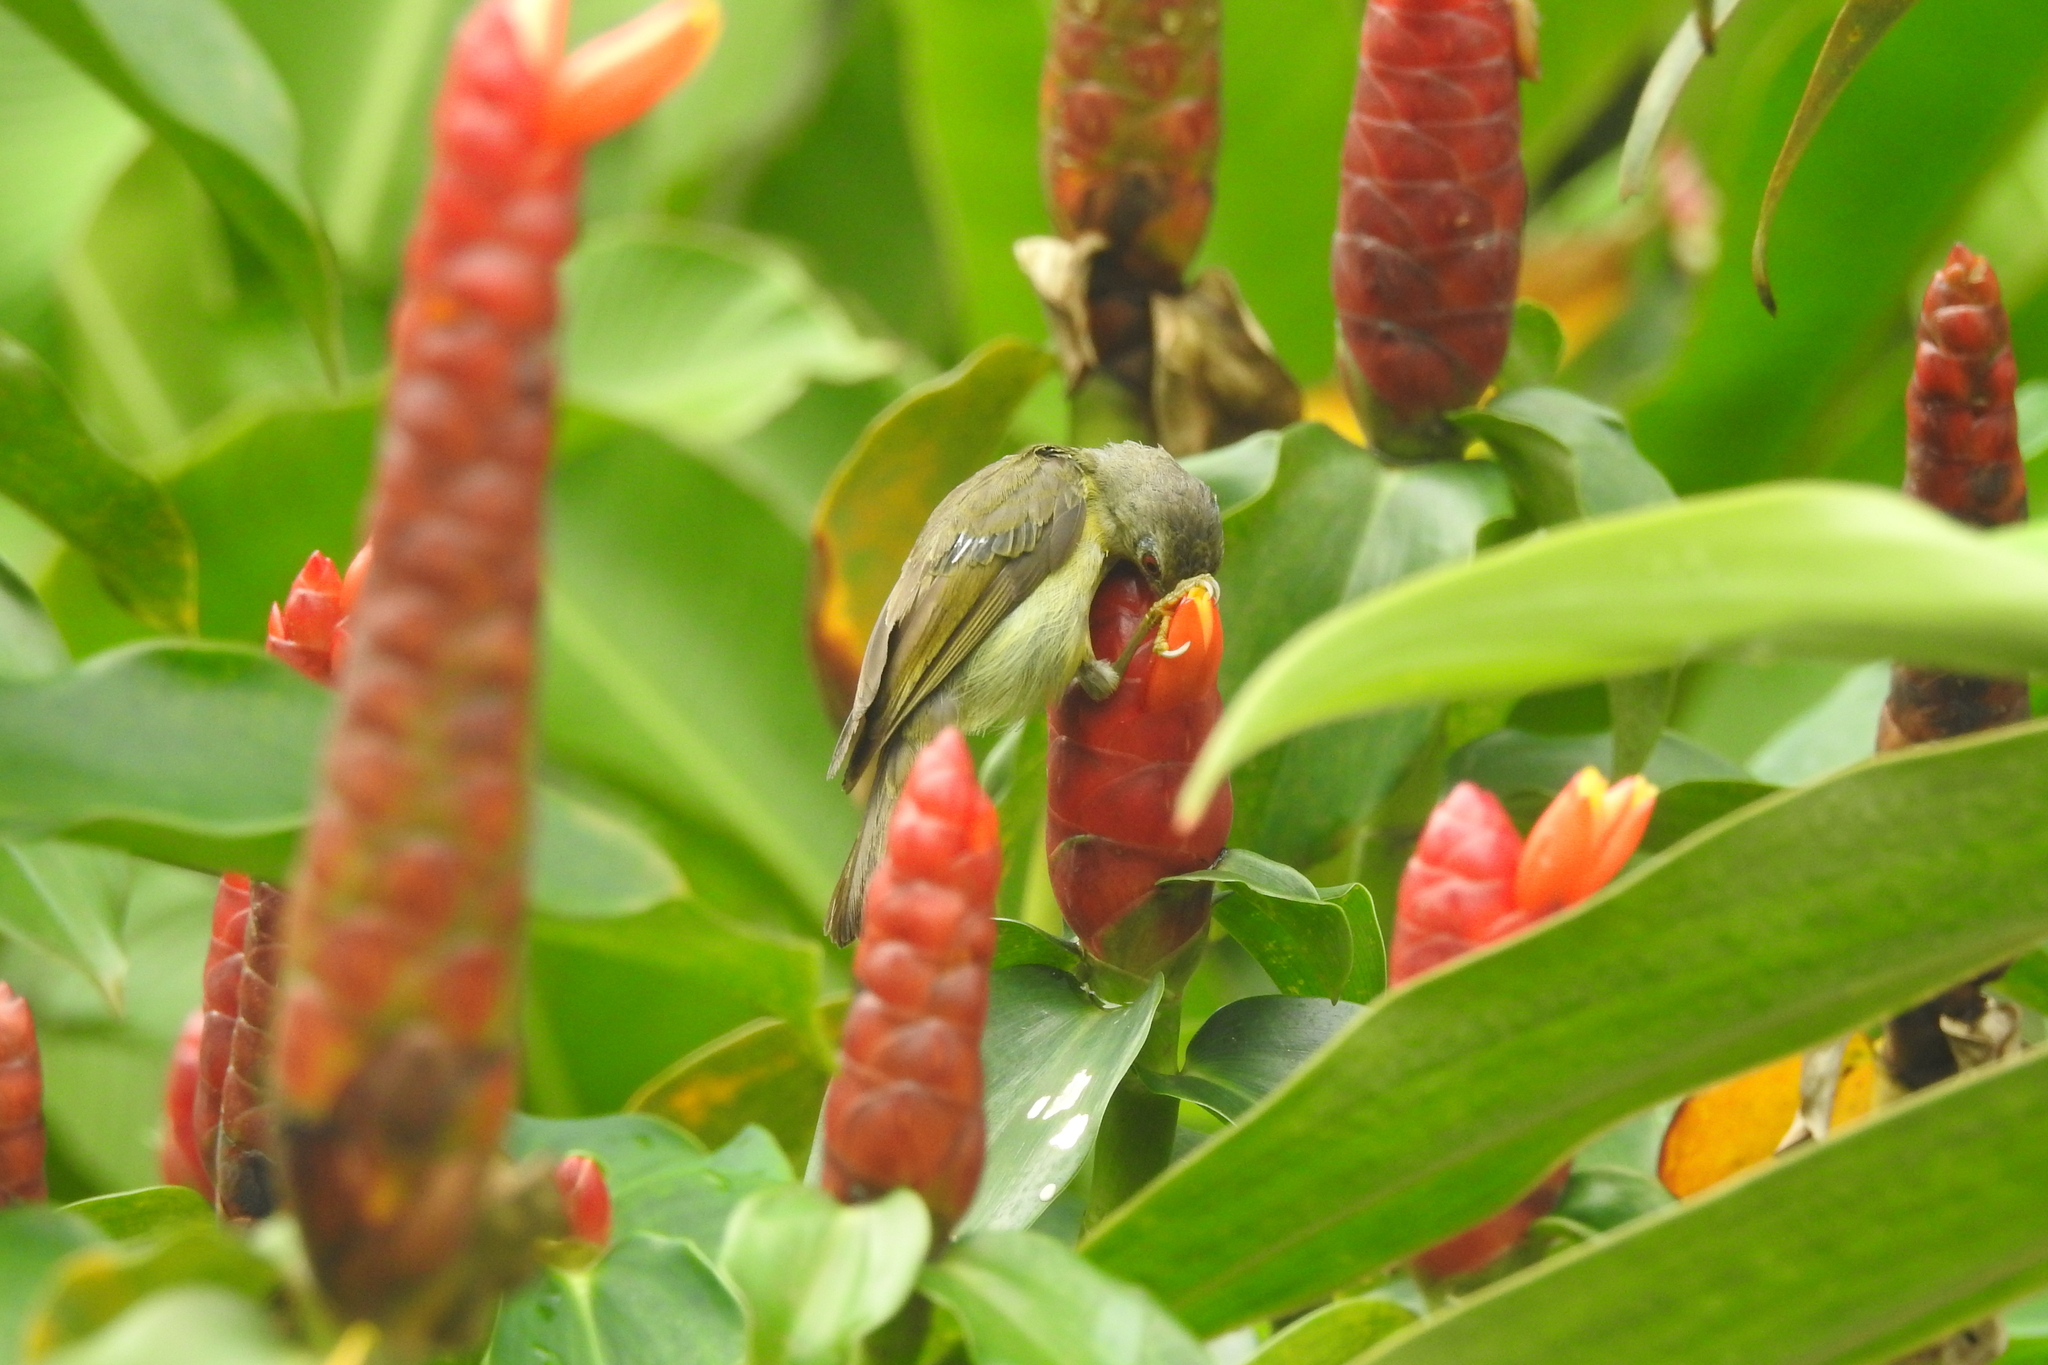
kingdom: Animalia
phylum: Chordata
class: Aves
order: Passeriformes
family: Nectariniidae
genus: Anthreptes
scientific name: Anthreptes malacensis
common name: Brown-throated sunbird
